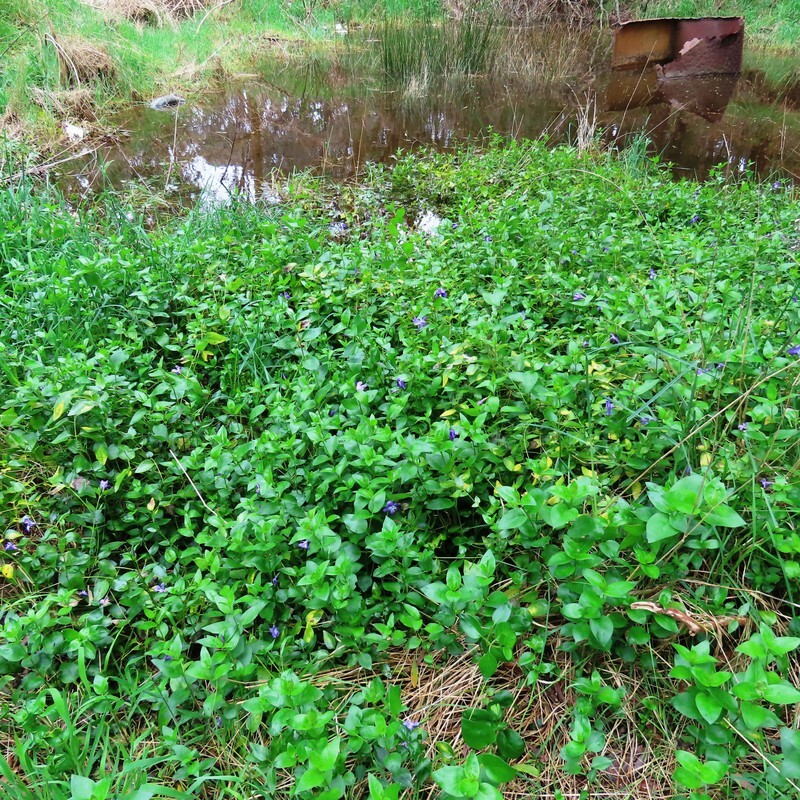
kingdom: Plantae
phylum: Tracheophyta
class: Magnoliopsida
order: Gentianales
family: Apocynaceae
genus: Vinca
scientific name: Vinca major
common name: Greater periwinkle
